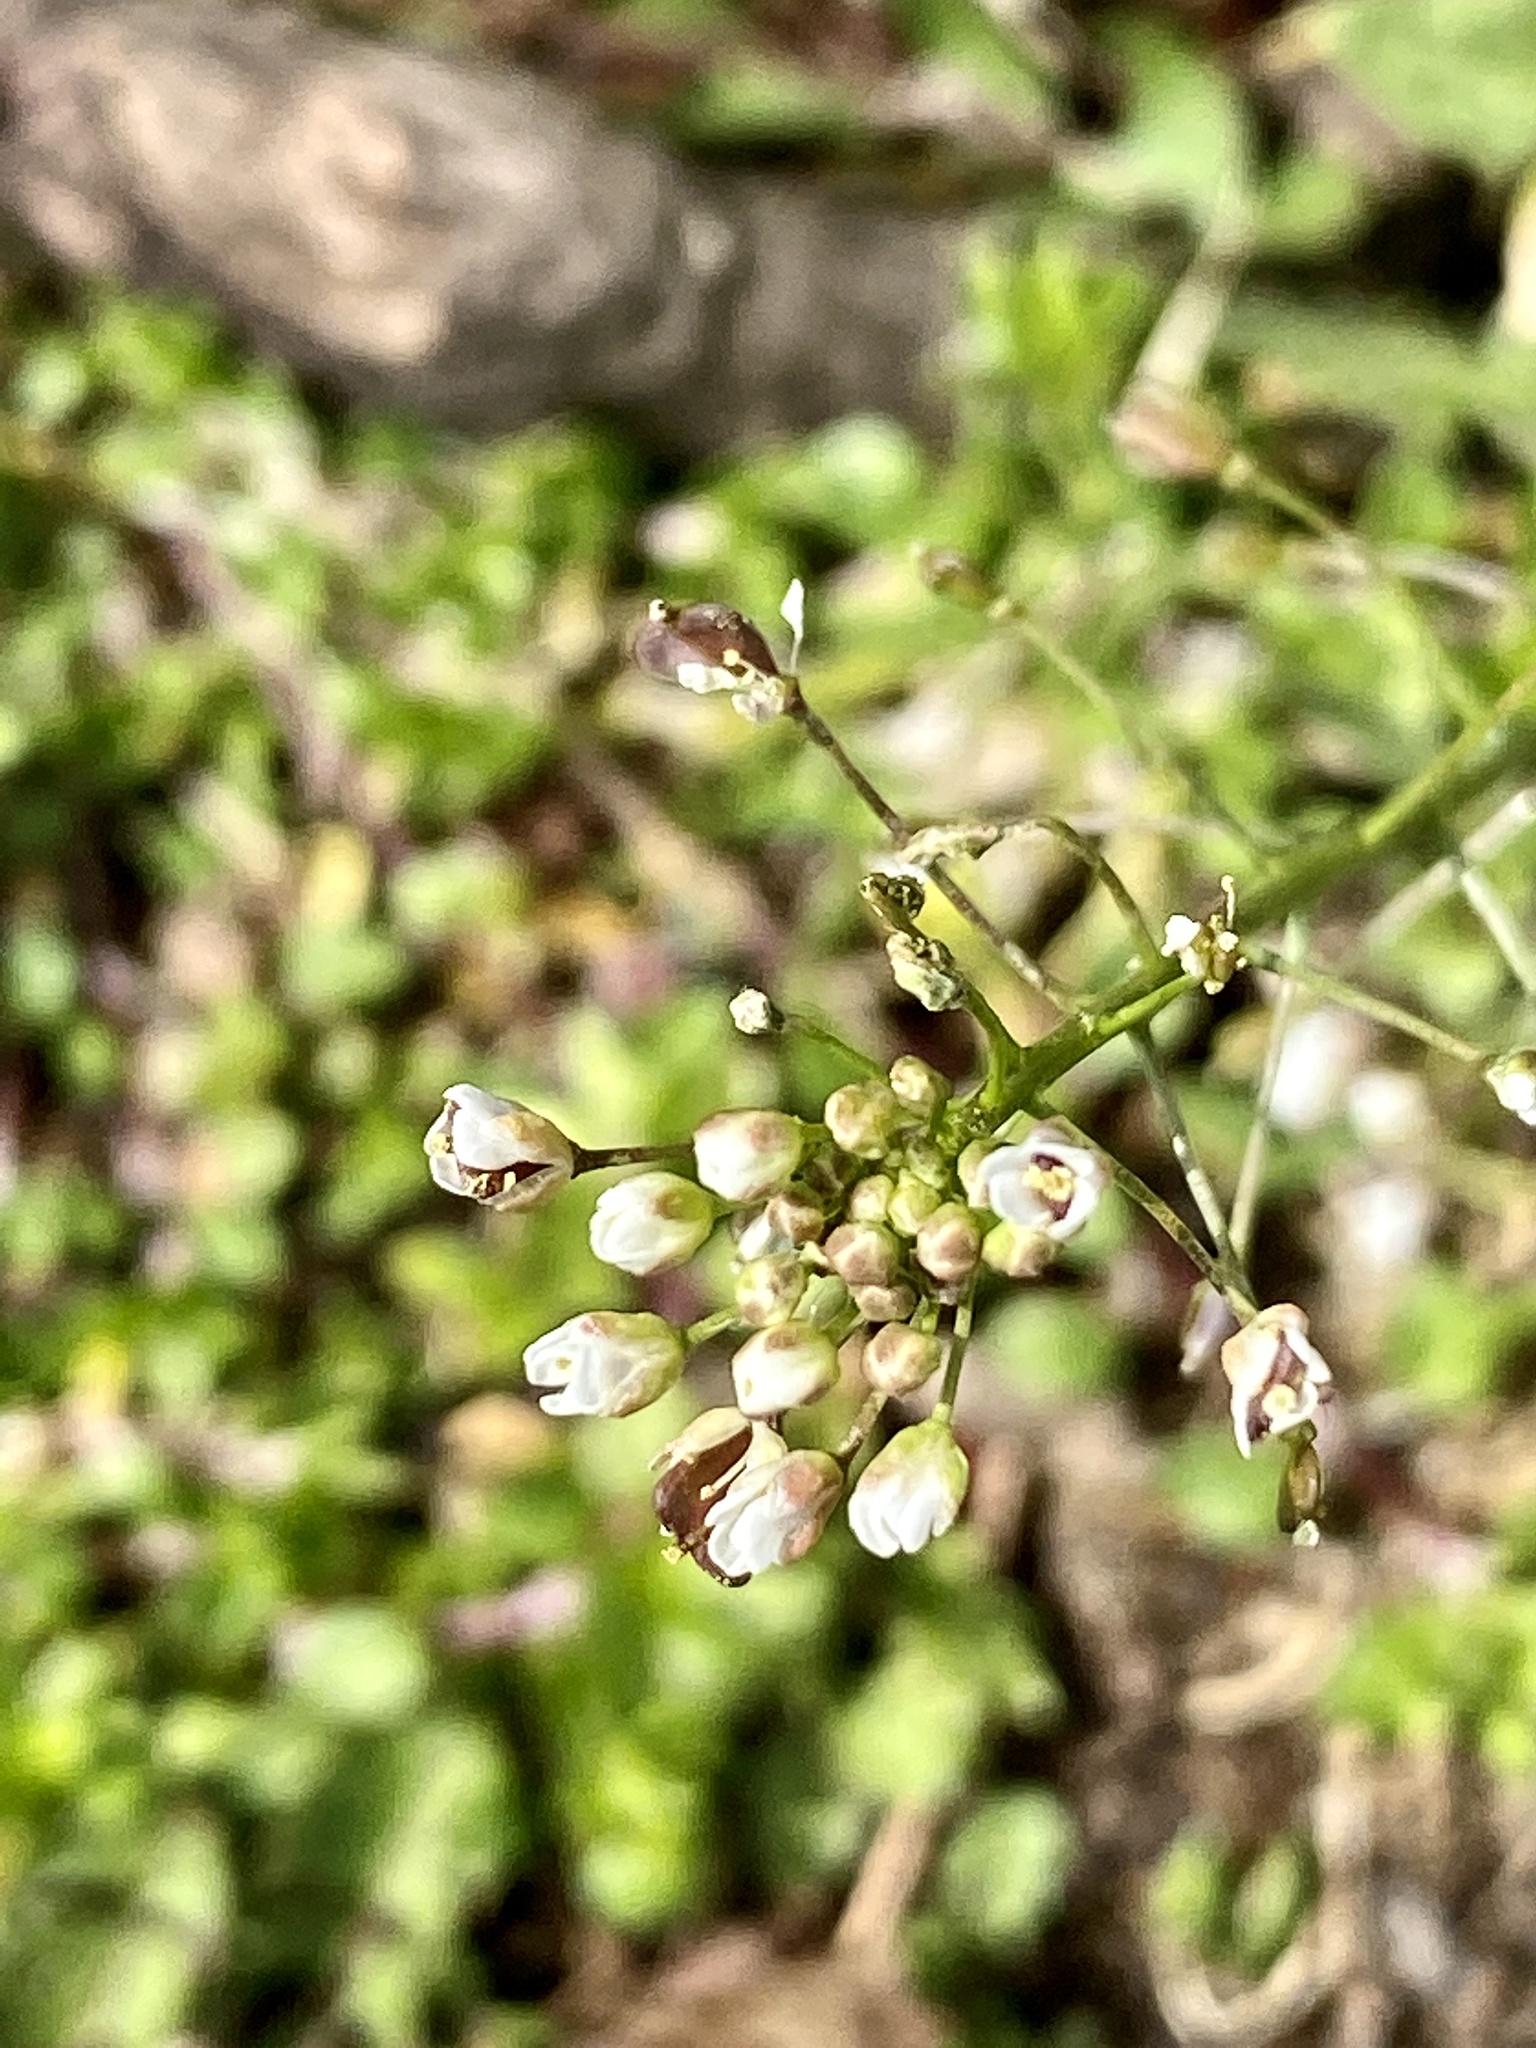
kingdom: Plantae
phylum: Tracheophyta
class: Magnoliopsida
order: Brassicales
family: Brassicaceae
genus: Capsella
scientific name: Capsella bursa-pastoris
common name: Shepherd's purse
